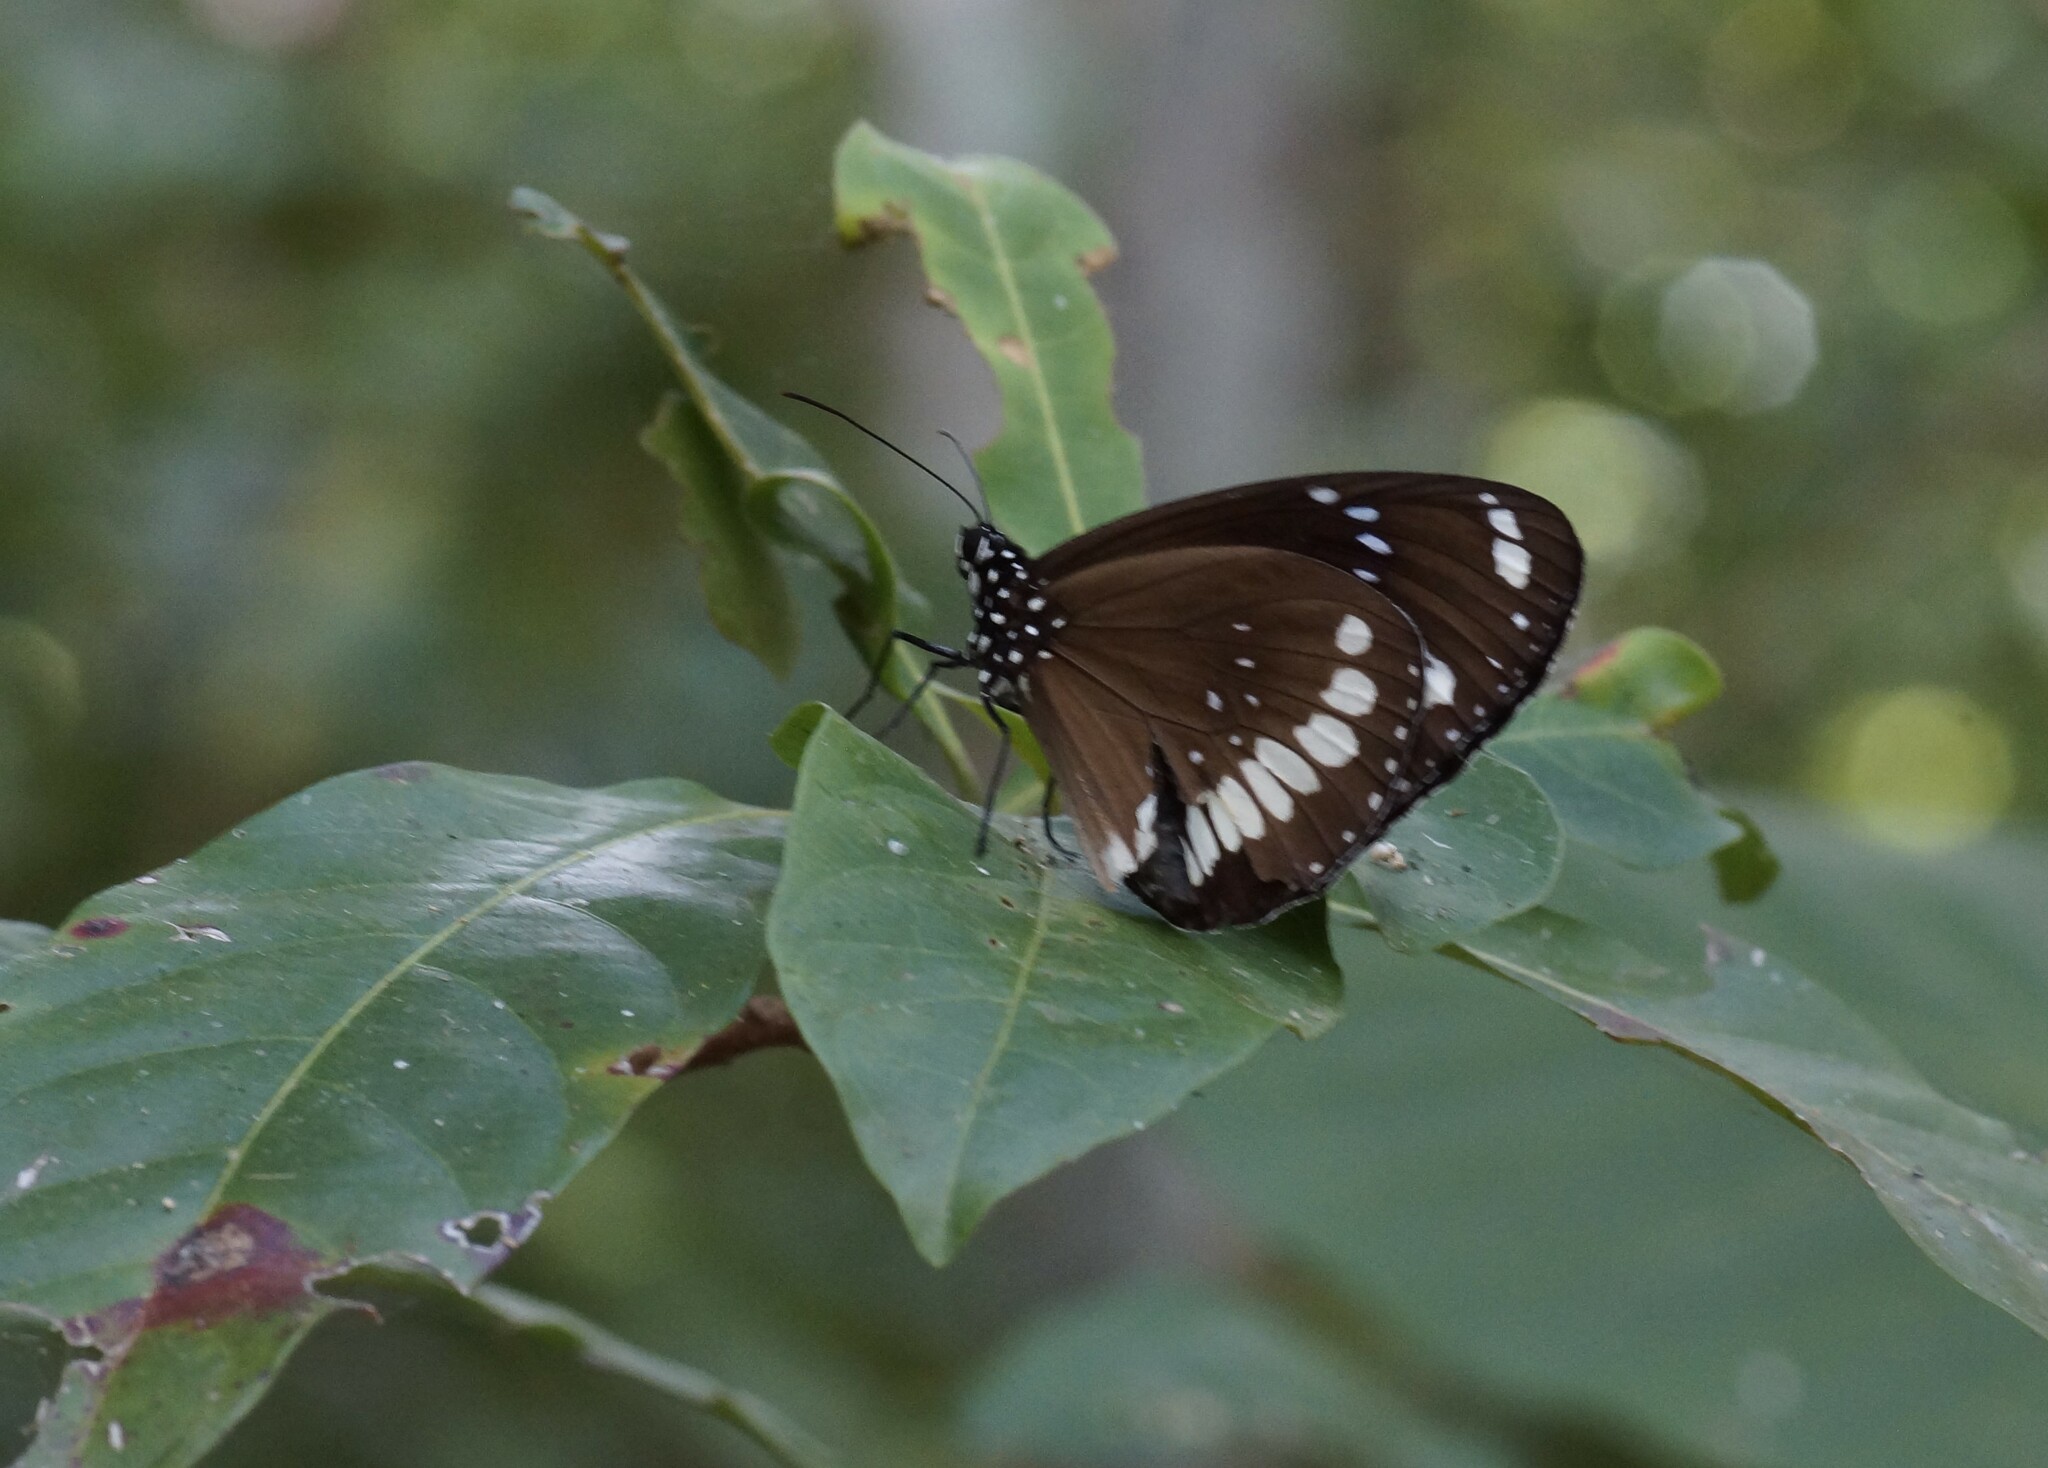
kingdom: Animalia
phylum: Arthropoda
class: Insecta
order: Lepidoptera
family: Nymphalidae
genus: Euploea
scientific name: Euploea core
